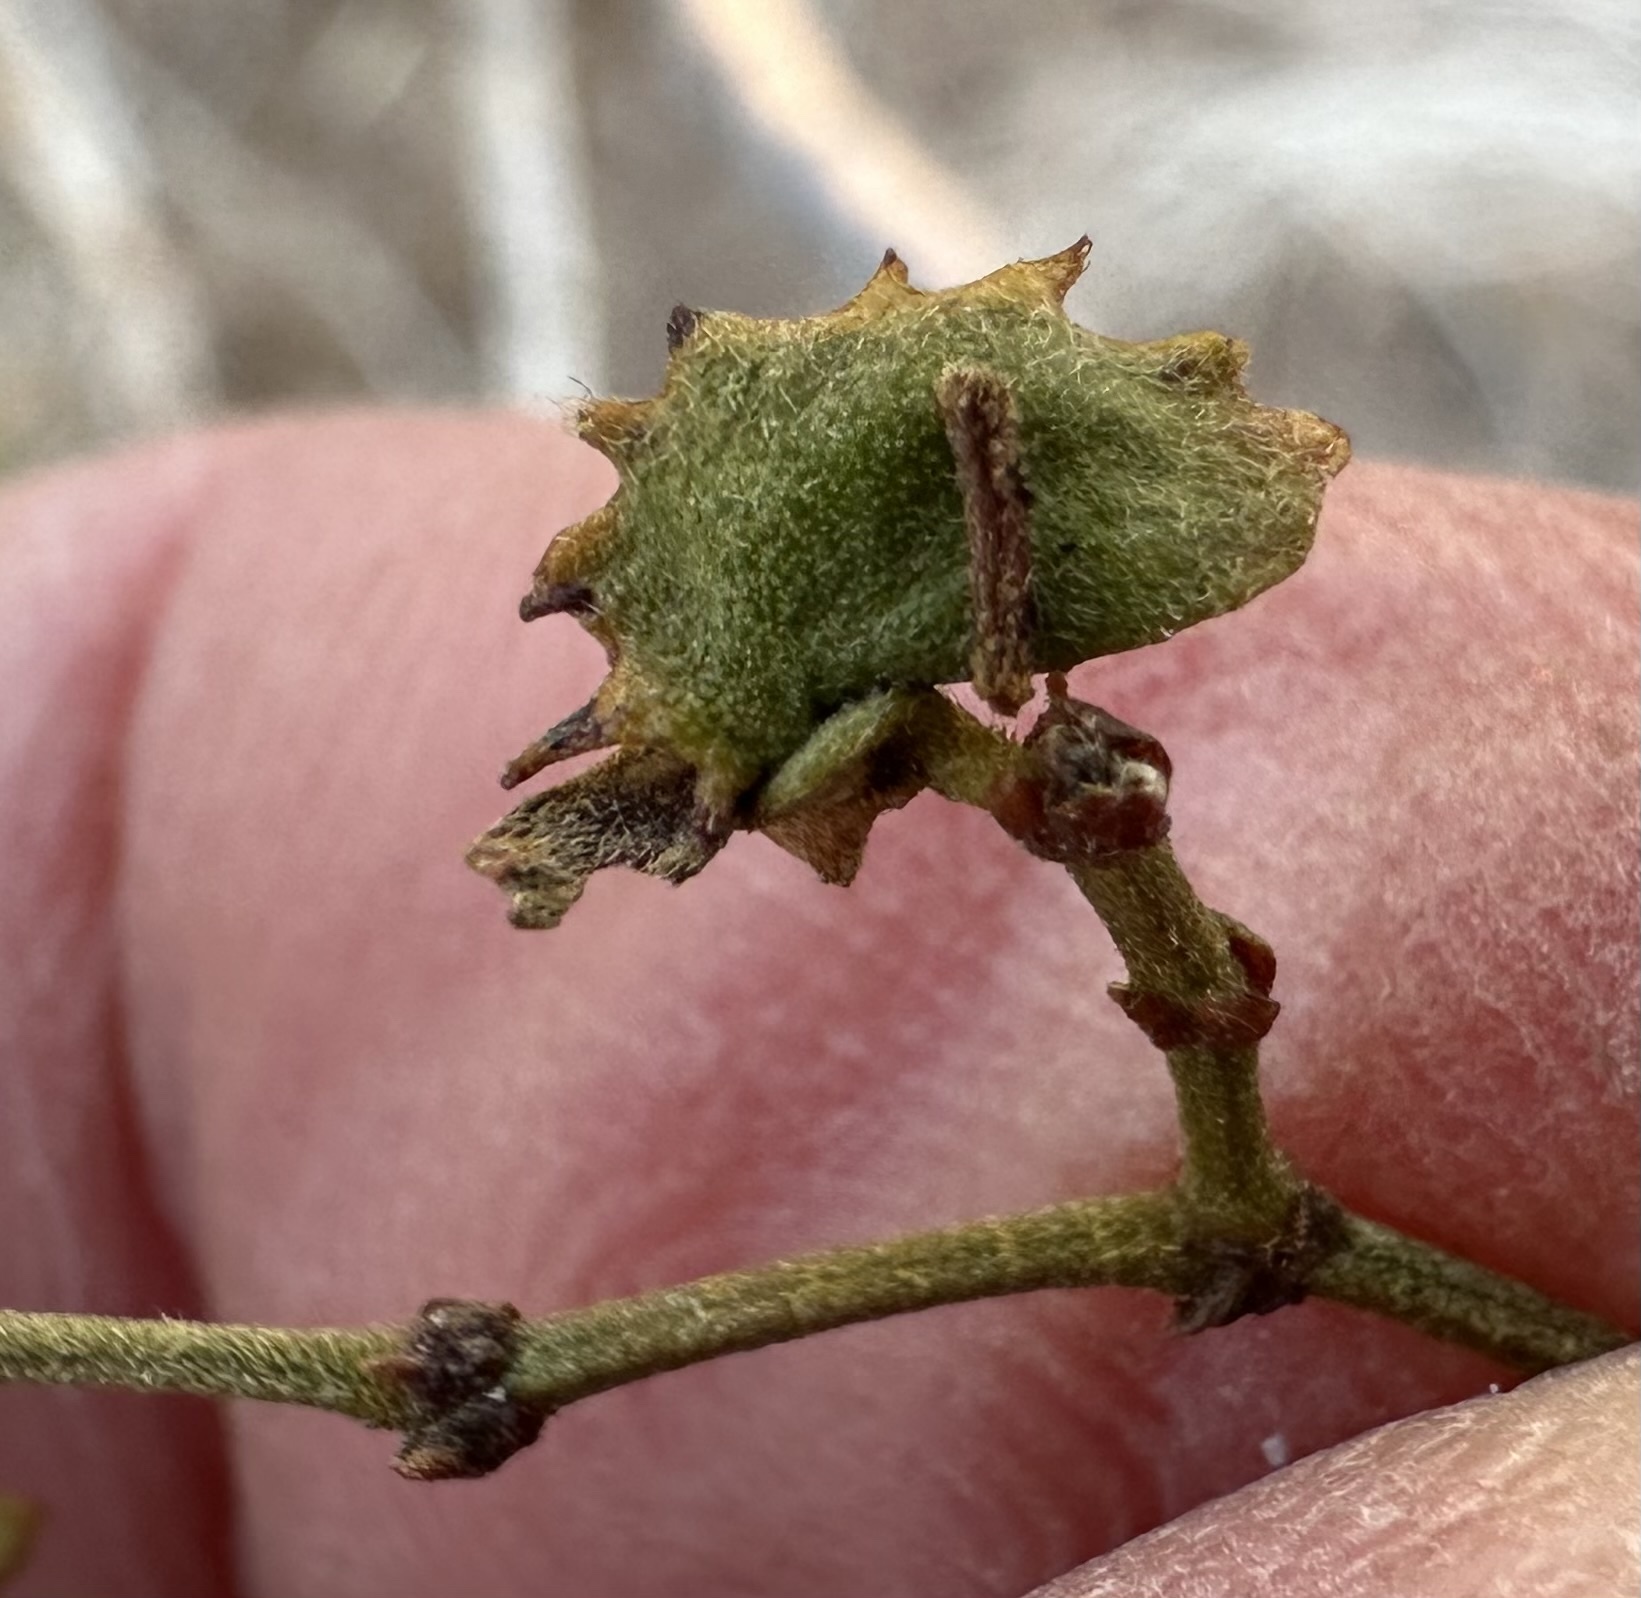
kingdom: Animalia
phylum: Arthropoda
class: Insecta
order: Diptera
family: Cecidomyiidae
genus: Asphondylia
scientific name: Asphondylia digitata
